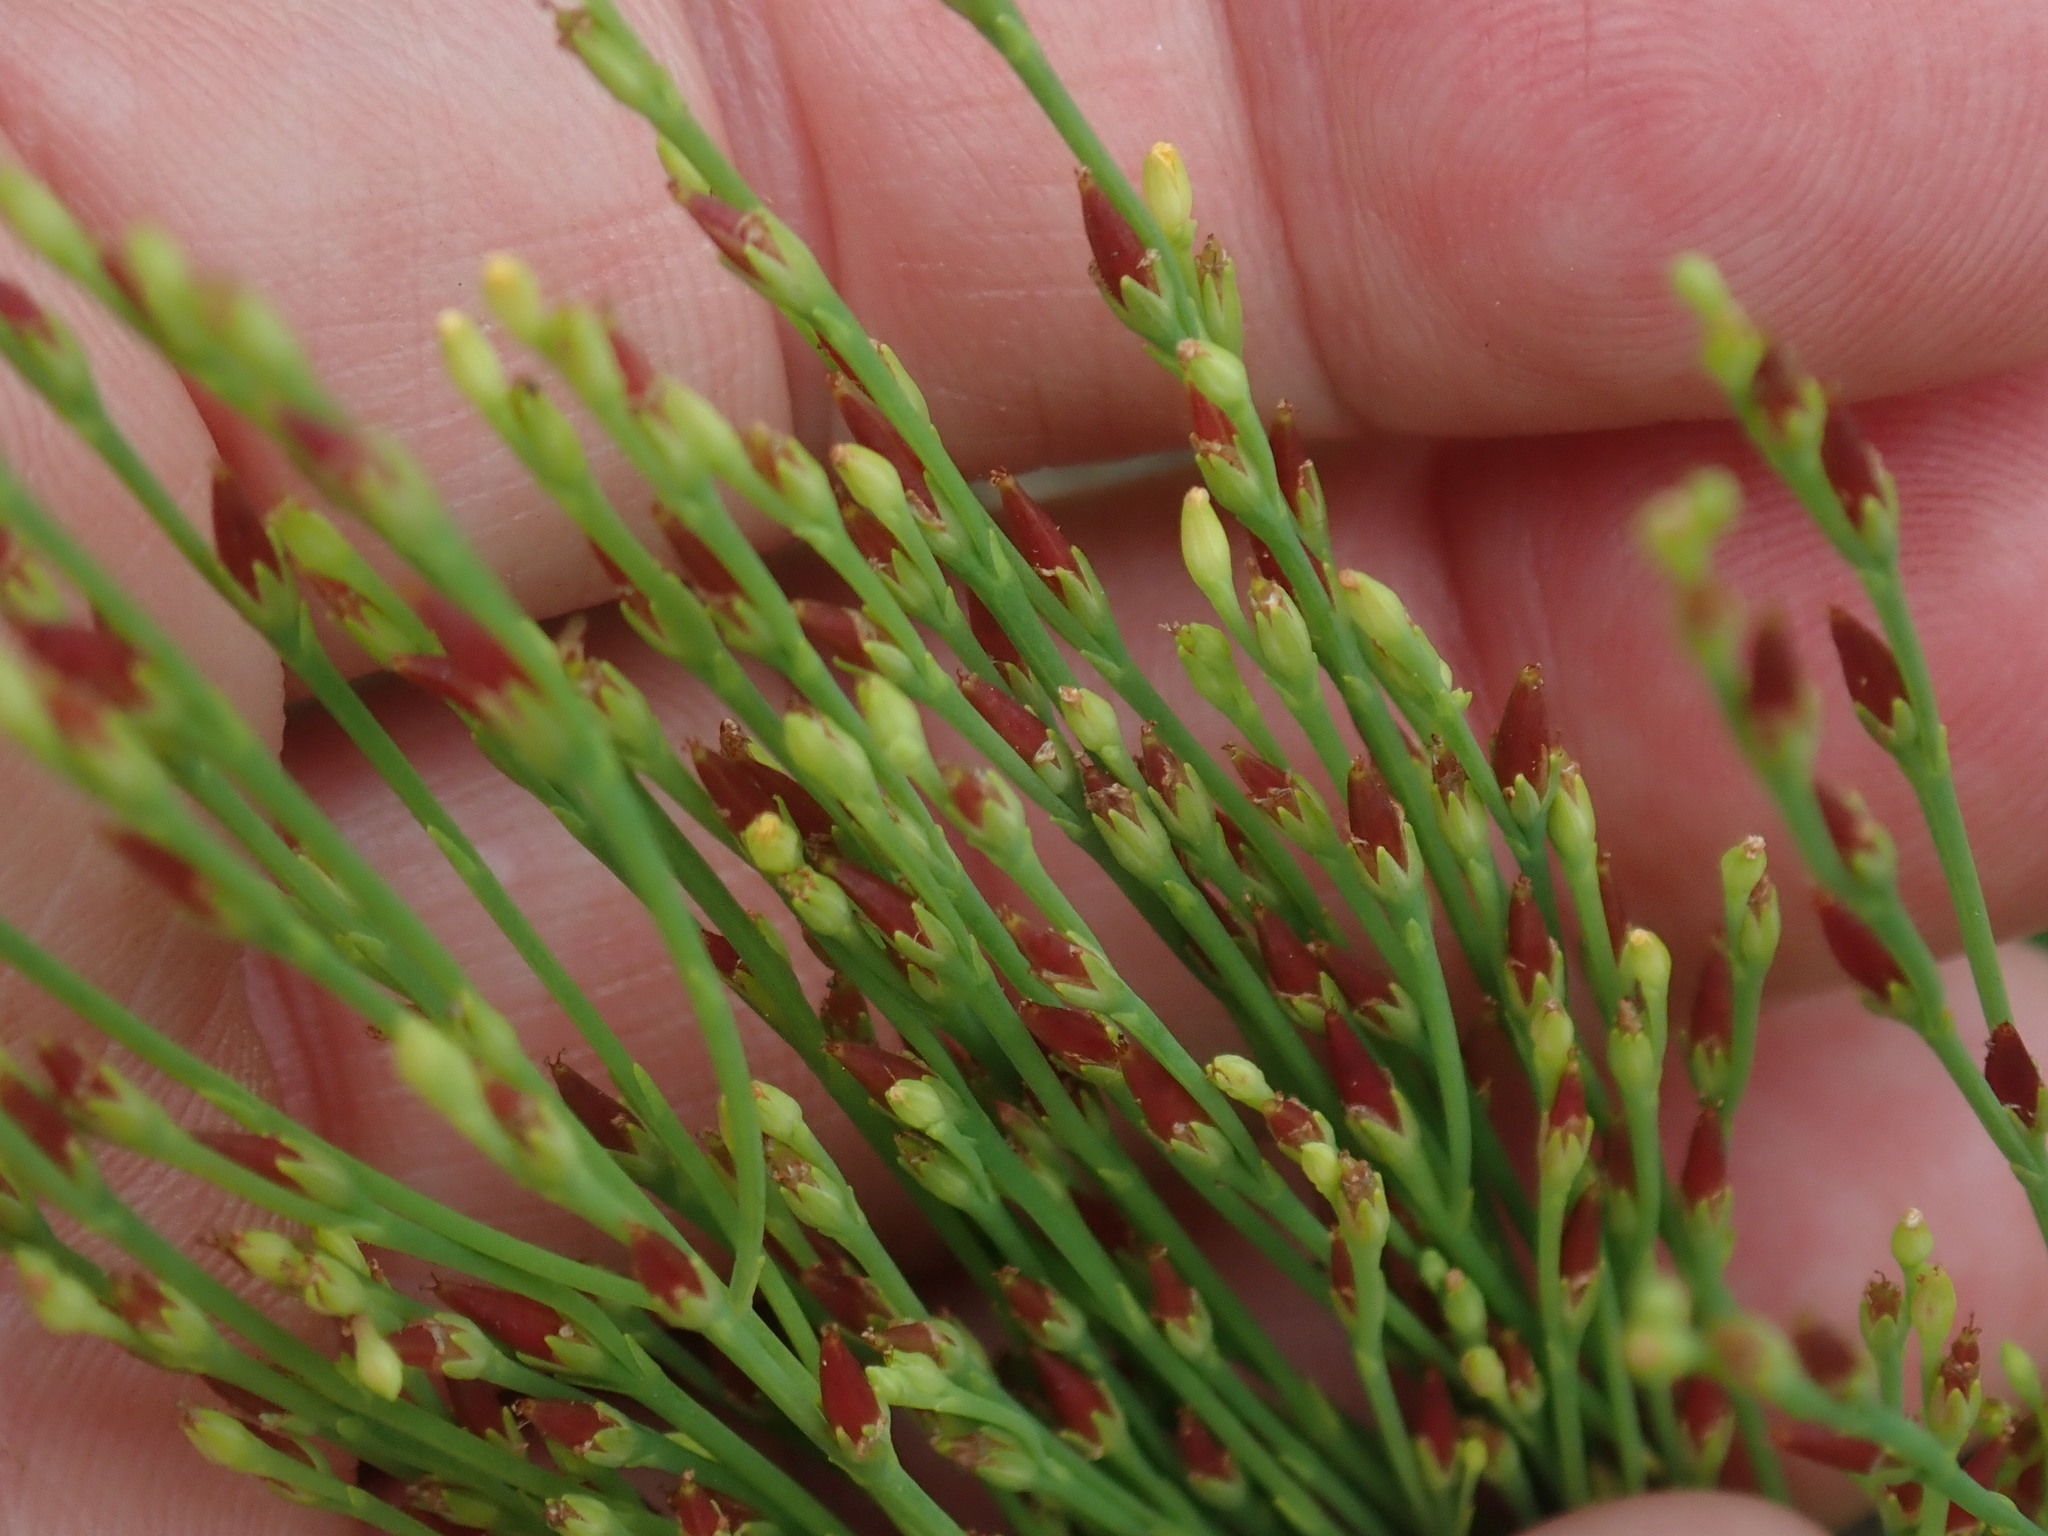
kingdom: Plantae
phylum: Tracheophyta
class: Magnoliopsida
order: Malpighiales
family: Hypericaceae
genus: Hypericum
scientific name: Hypericum gentianoides
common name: Gentian-leaved st. john's-wort
